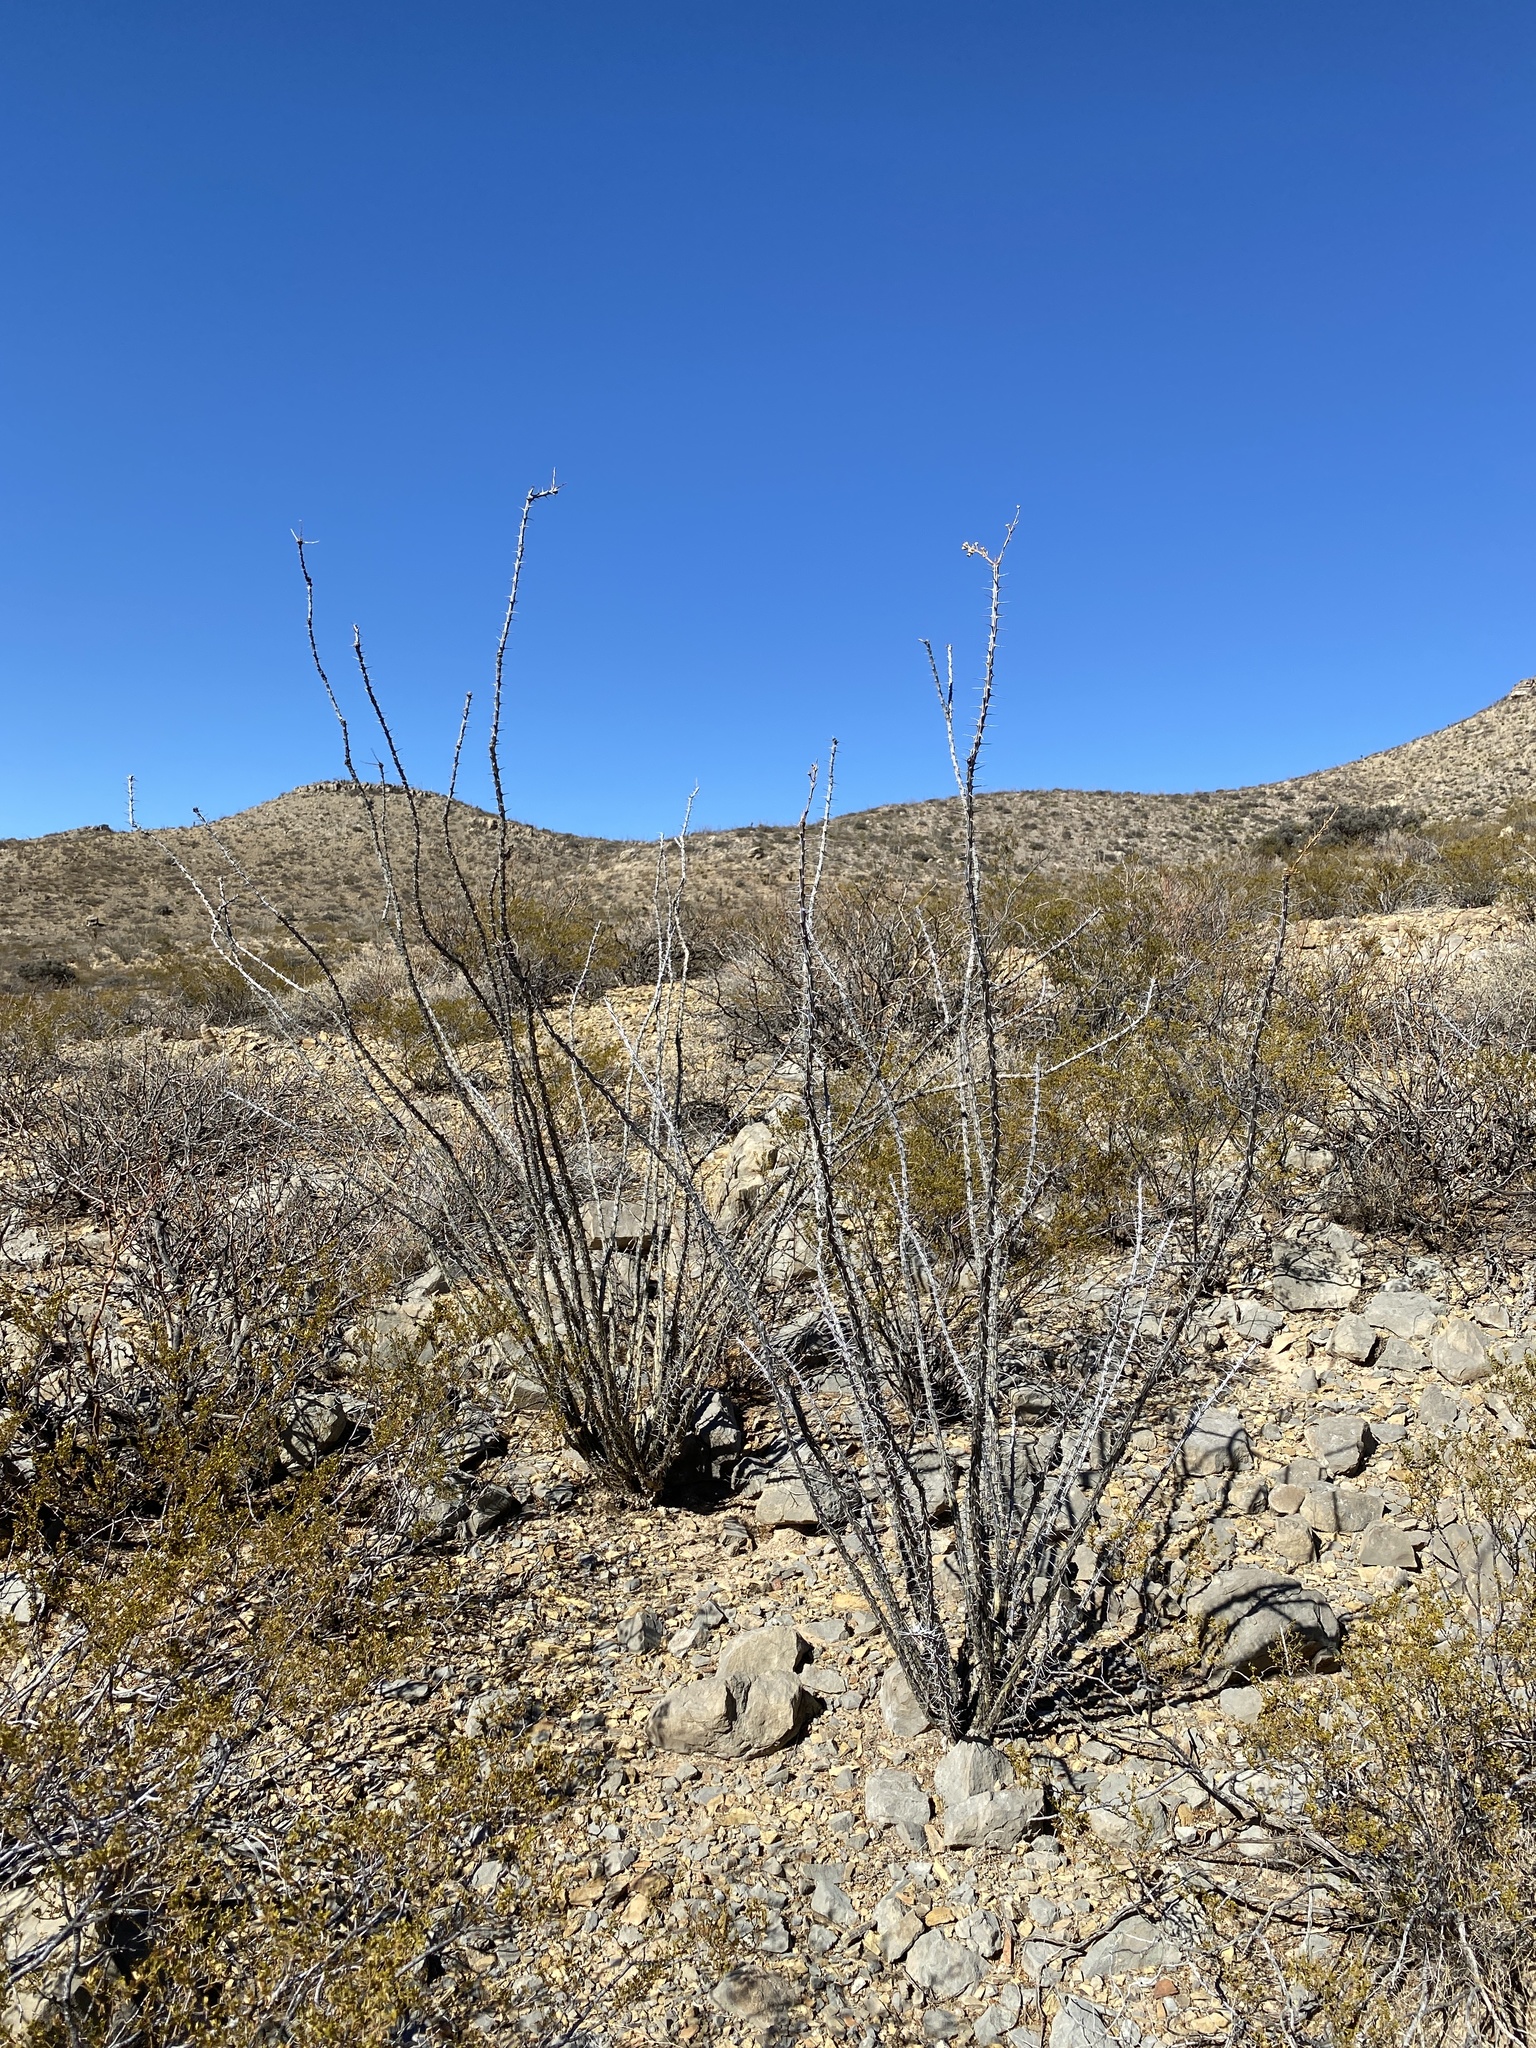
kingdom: Plantae
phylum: Tracheophyta
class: Magnoliopsida
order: Ericales
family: Fouquieriaceae
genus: Fouquieria
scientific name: Fouquieria splendens
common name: Vine-cactus
